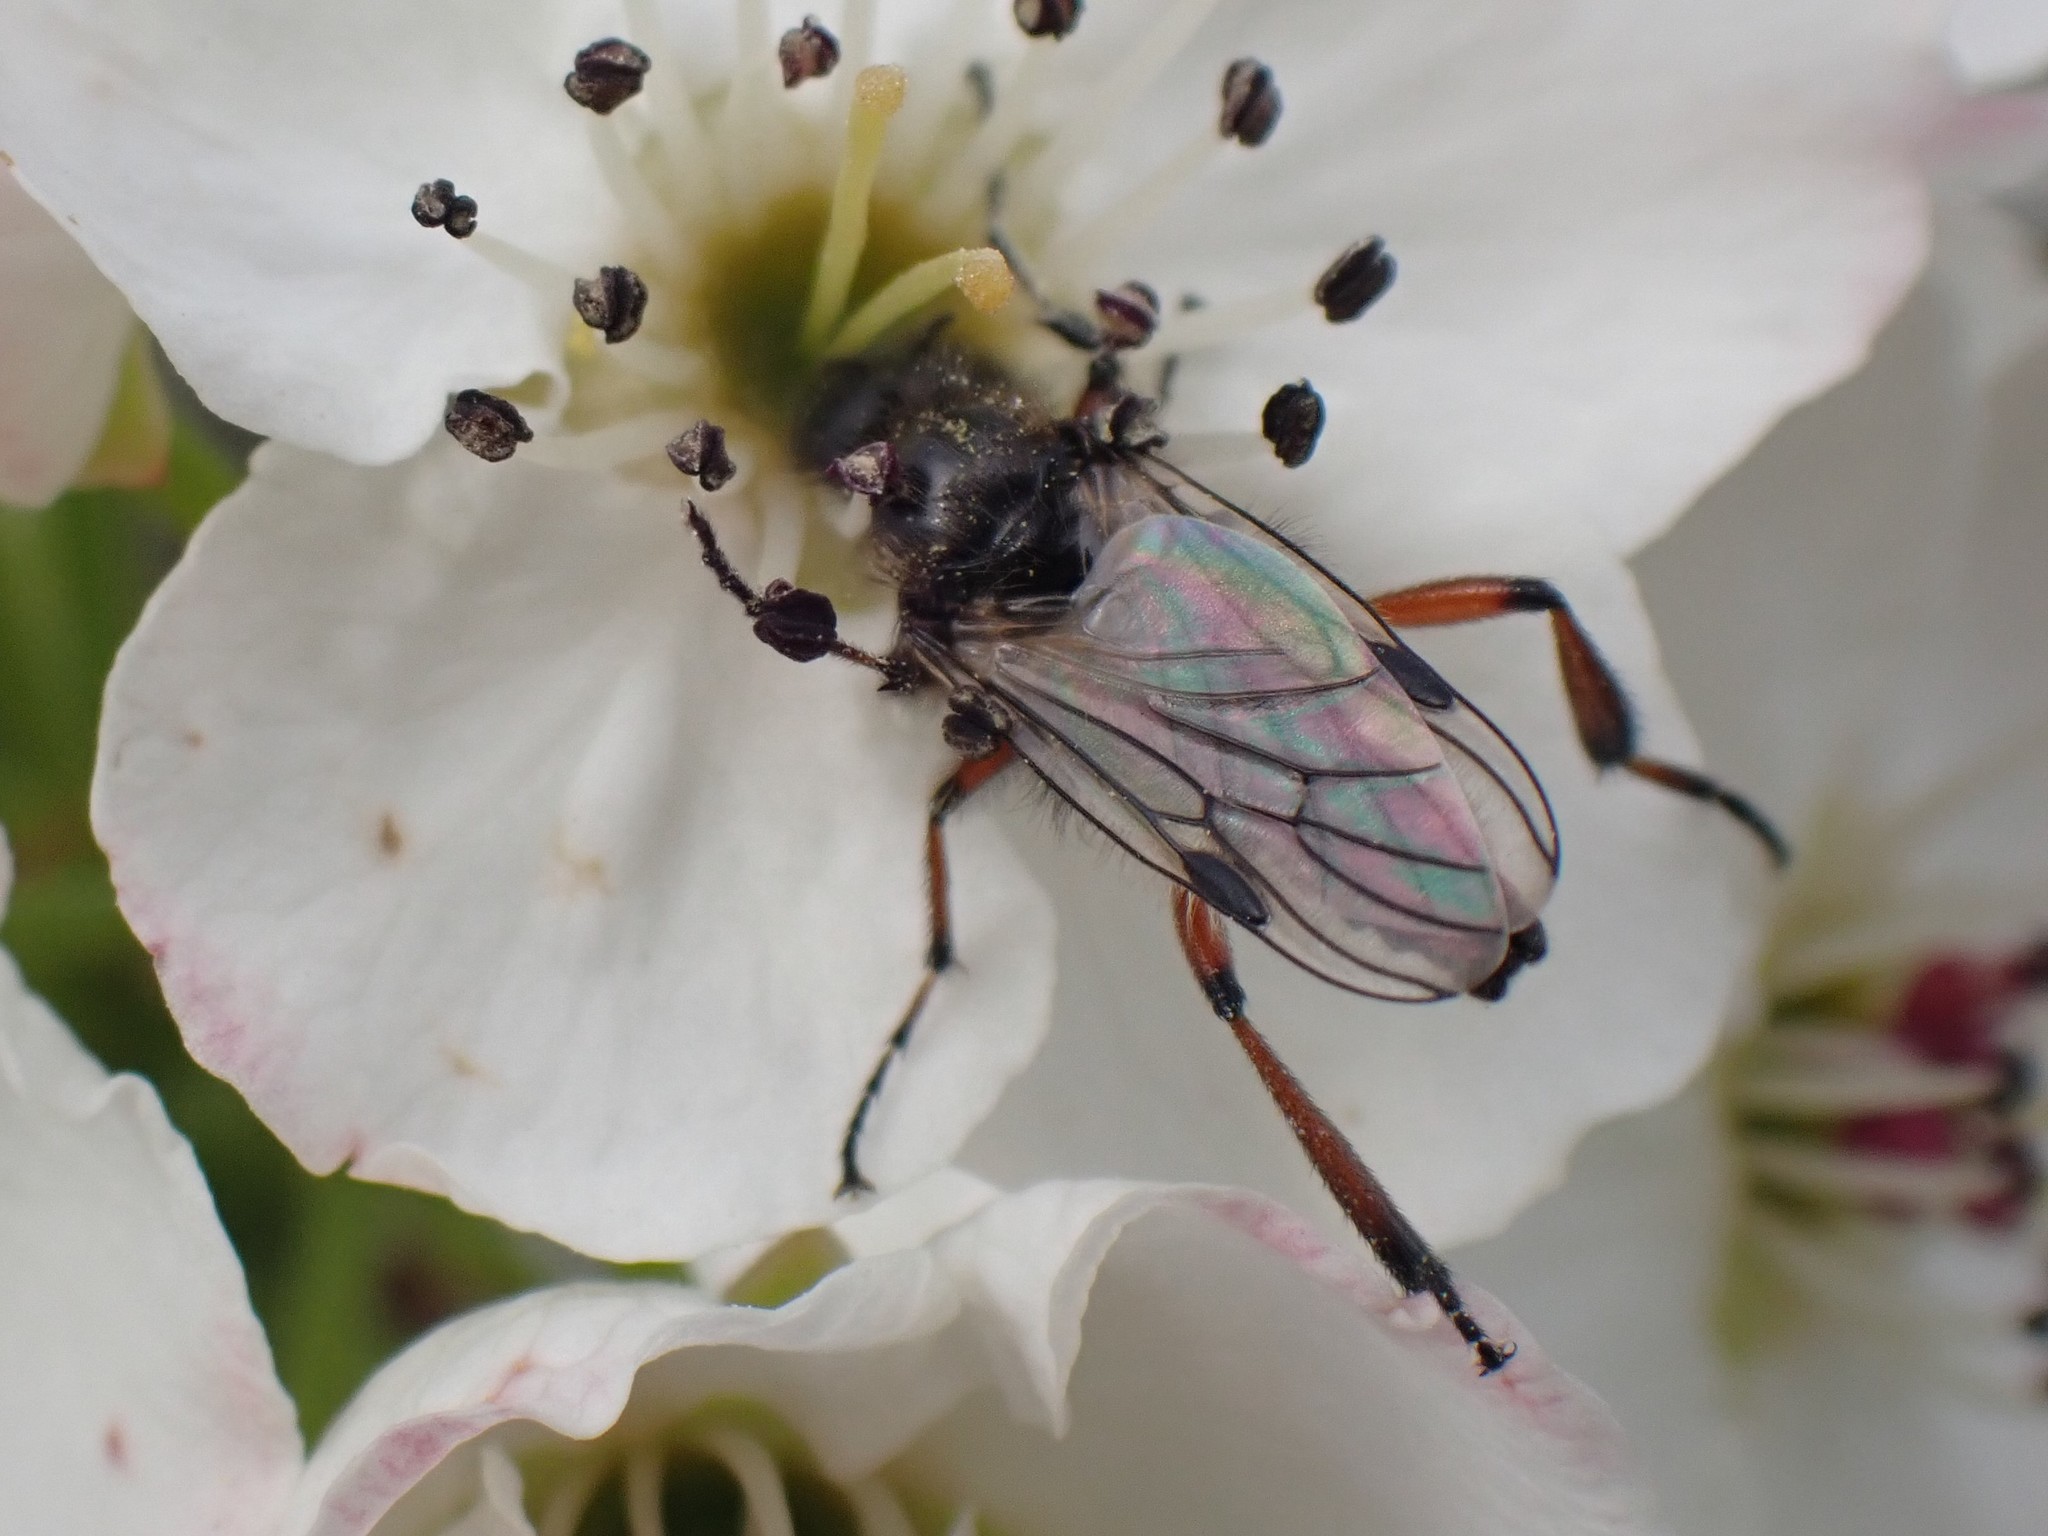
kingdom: Animalia
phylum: Arthropoda
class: Insecta
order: Diptera
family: Bibionidae
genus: Bibio
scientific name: Bibio
